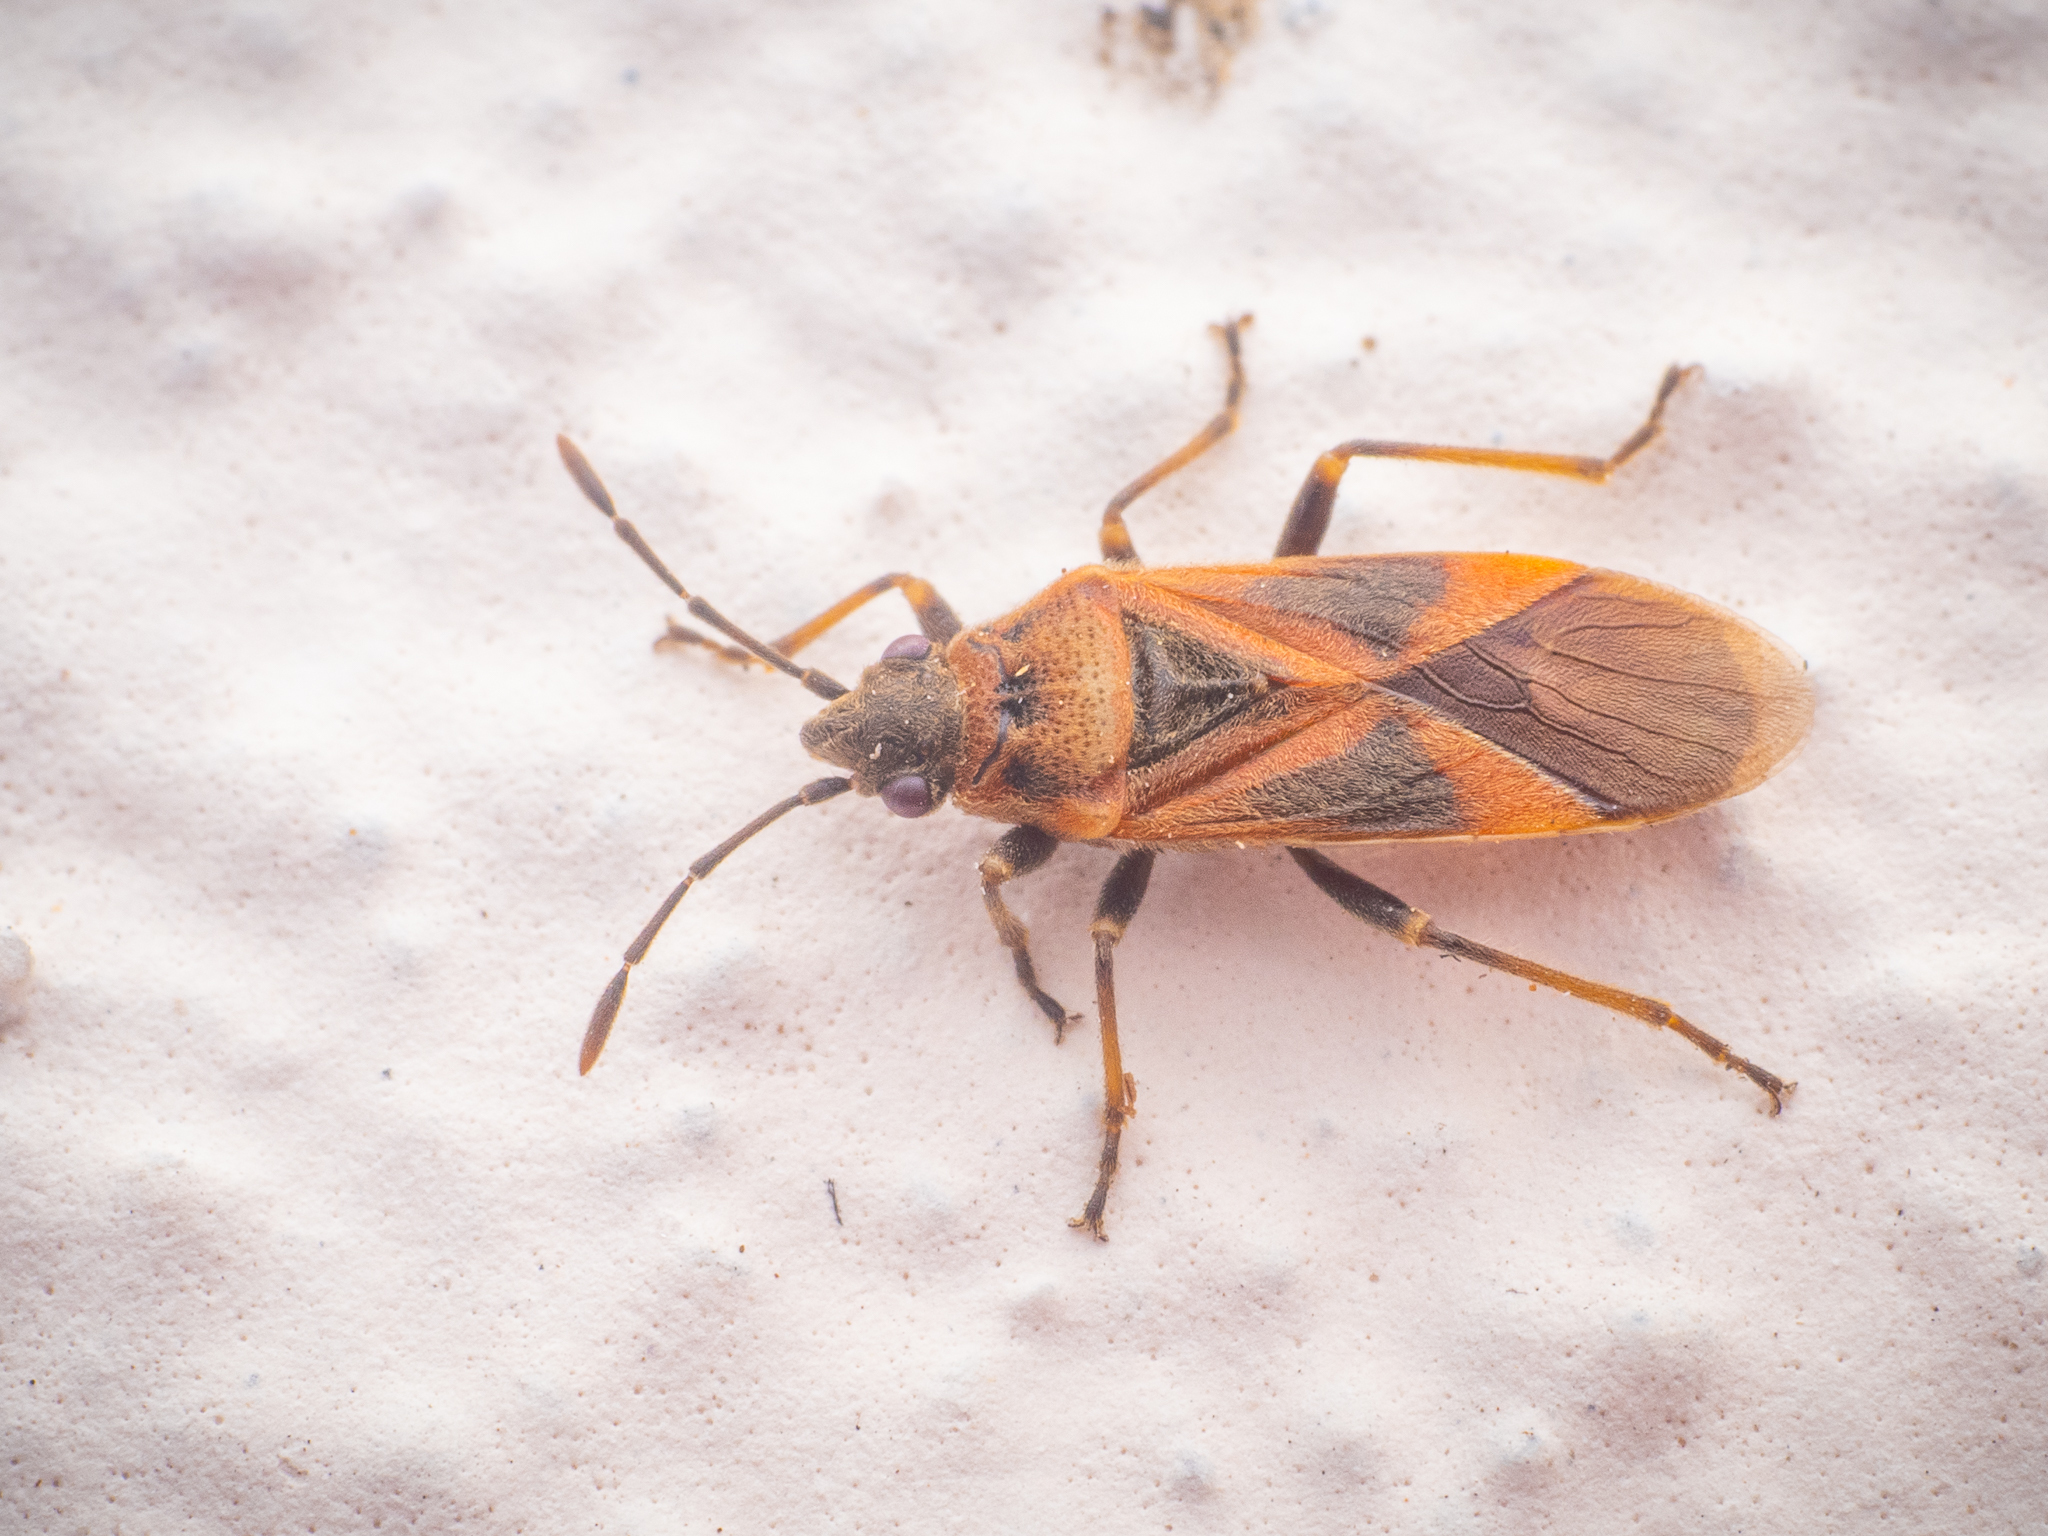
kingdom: Animalia
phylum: Arthropoda
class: Insecta
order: Hemiptera
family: Lygaeidae
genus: Arocatus
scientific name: Arocatus roeselii
